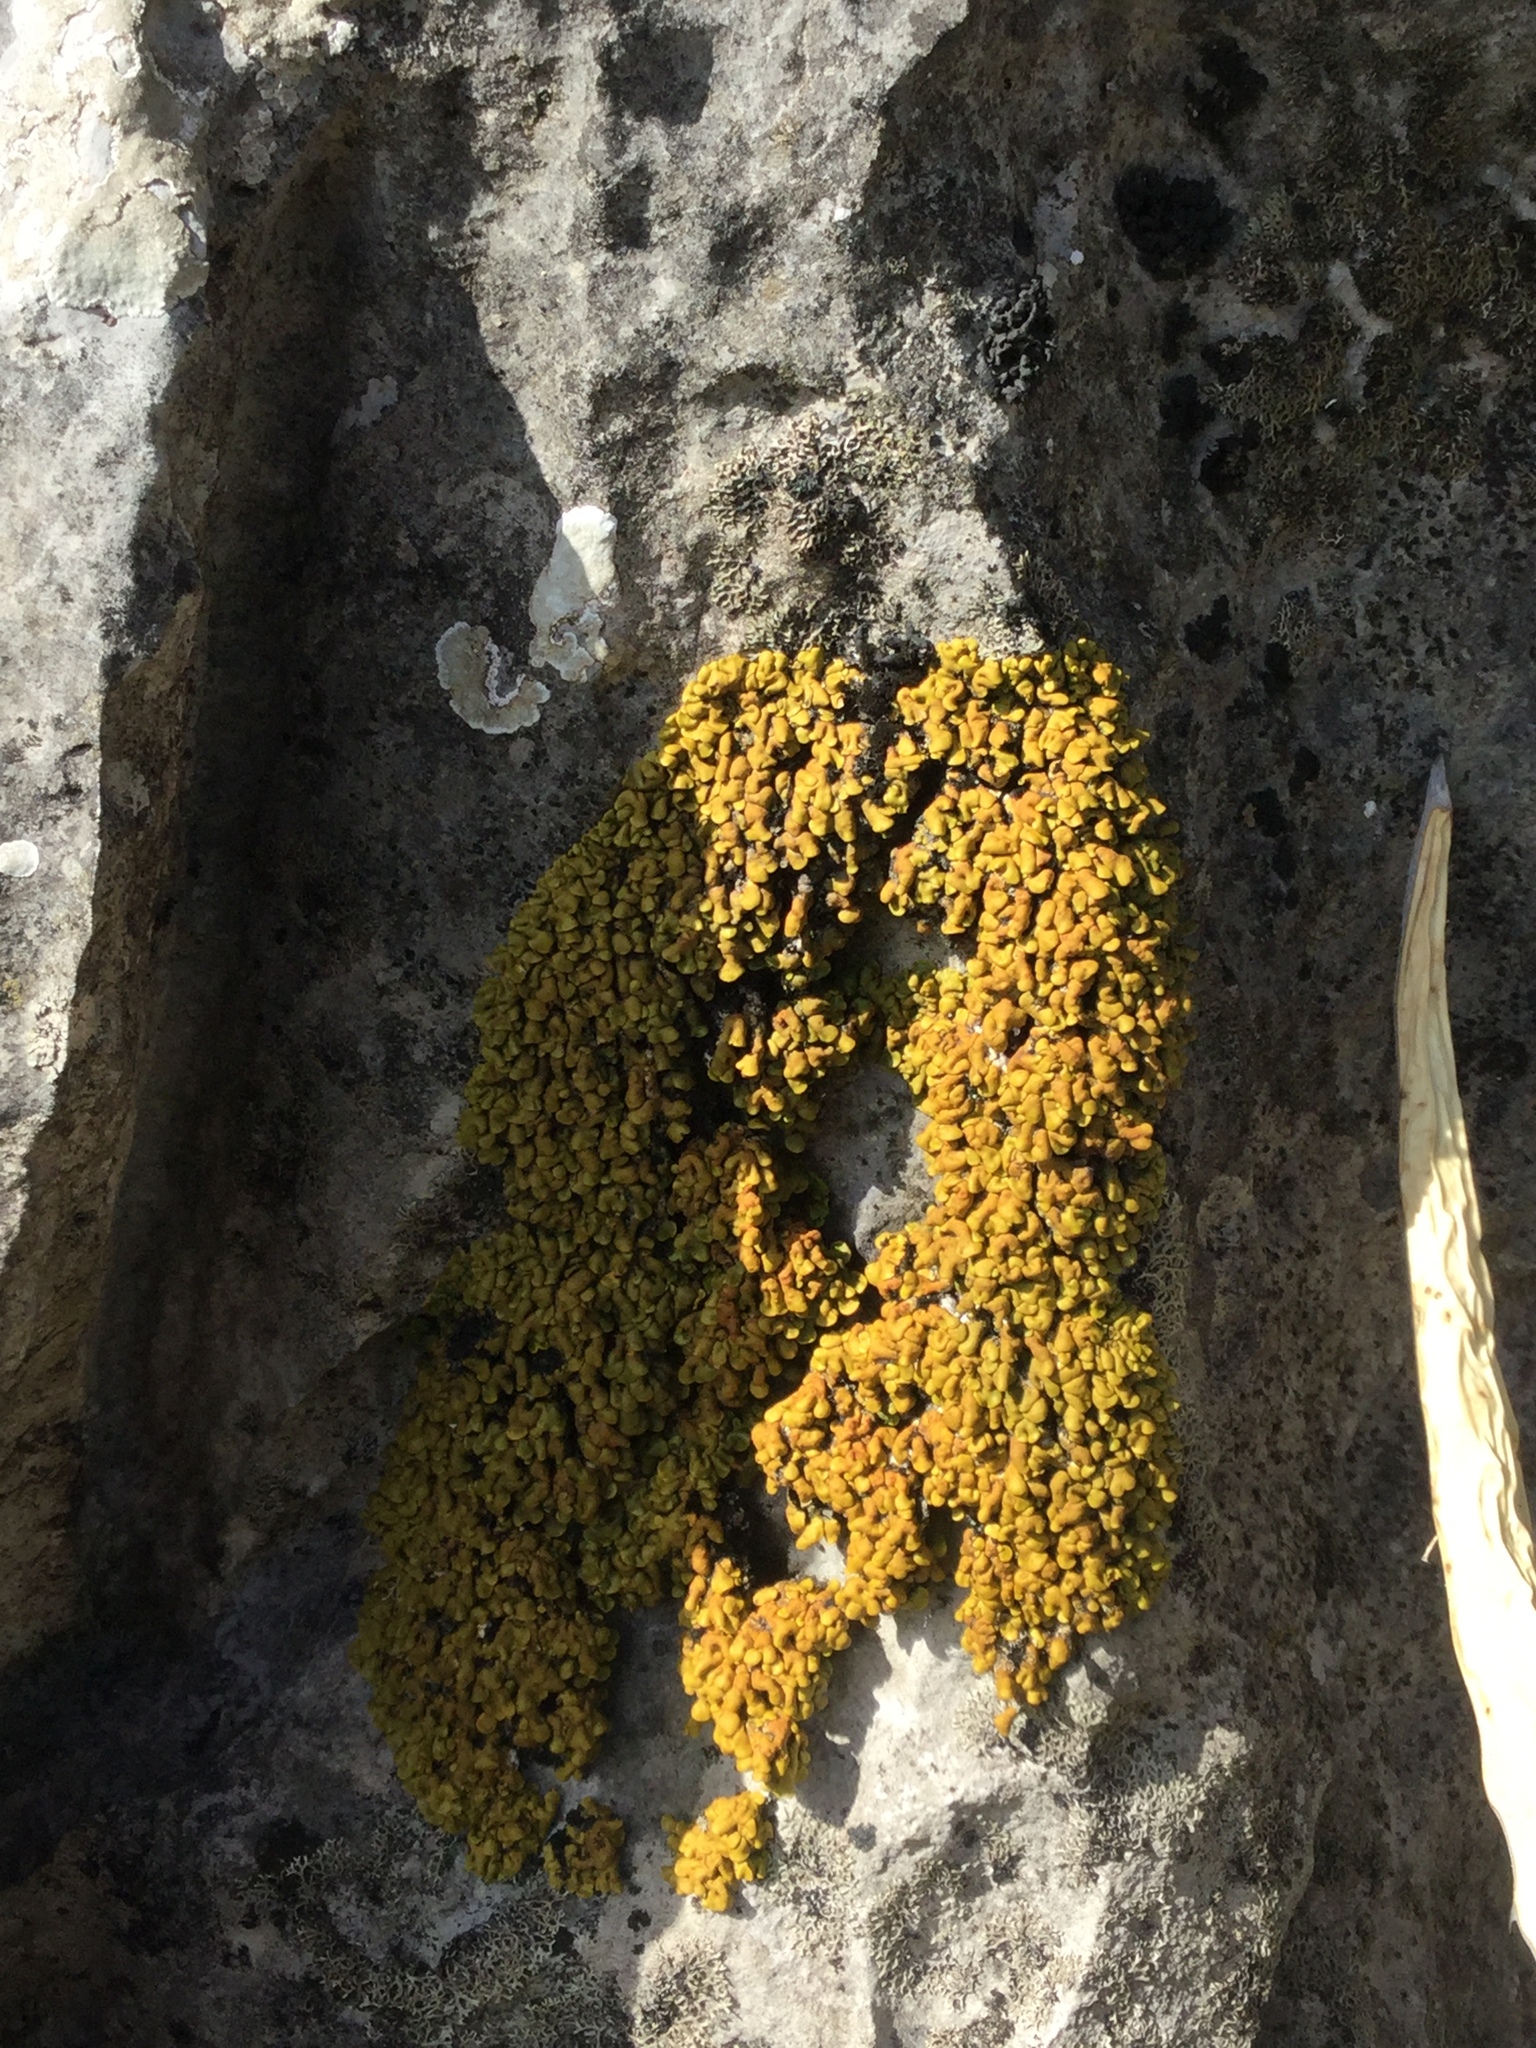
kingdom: Fungi
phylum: Ascomycota
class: Lecanoromycetes
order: Lecanorales
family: Catillariaceae
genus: Xanthopsorella
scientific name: Xanthopsorella texana
